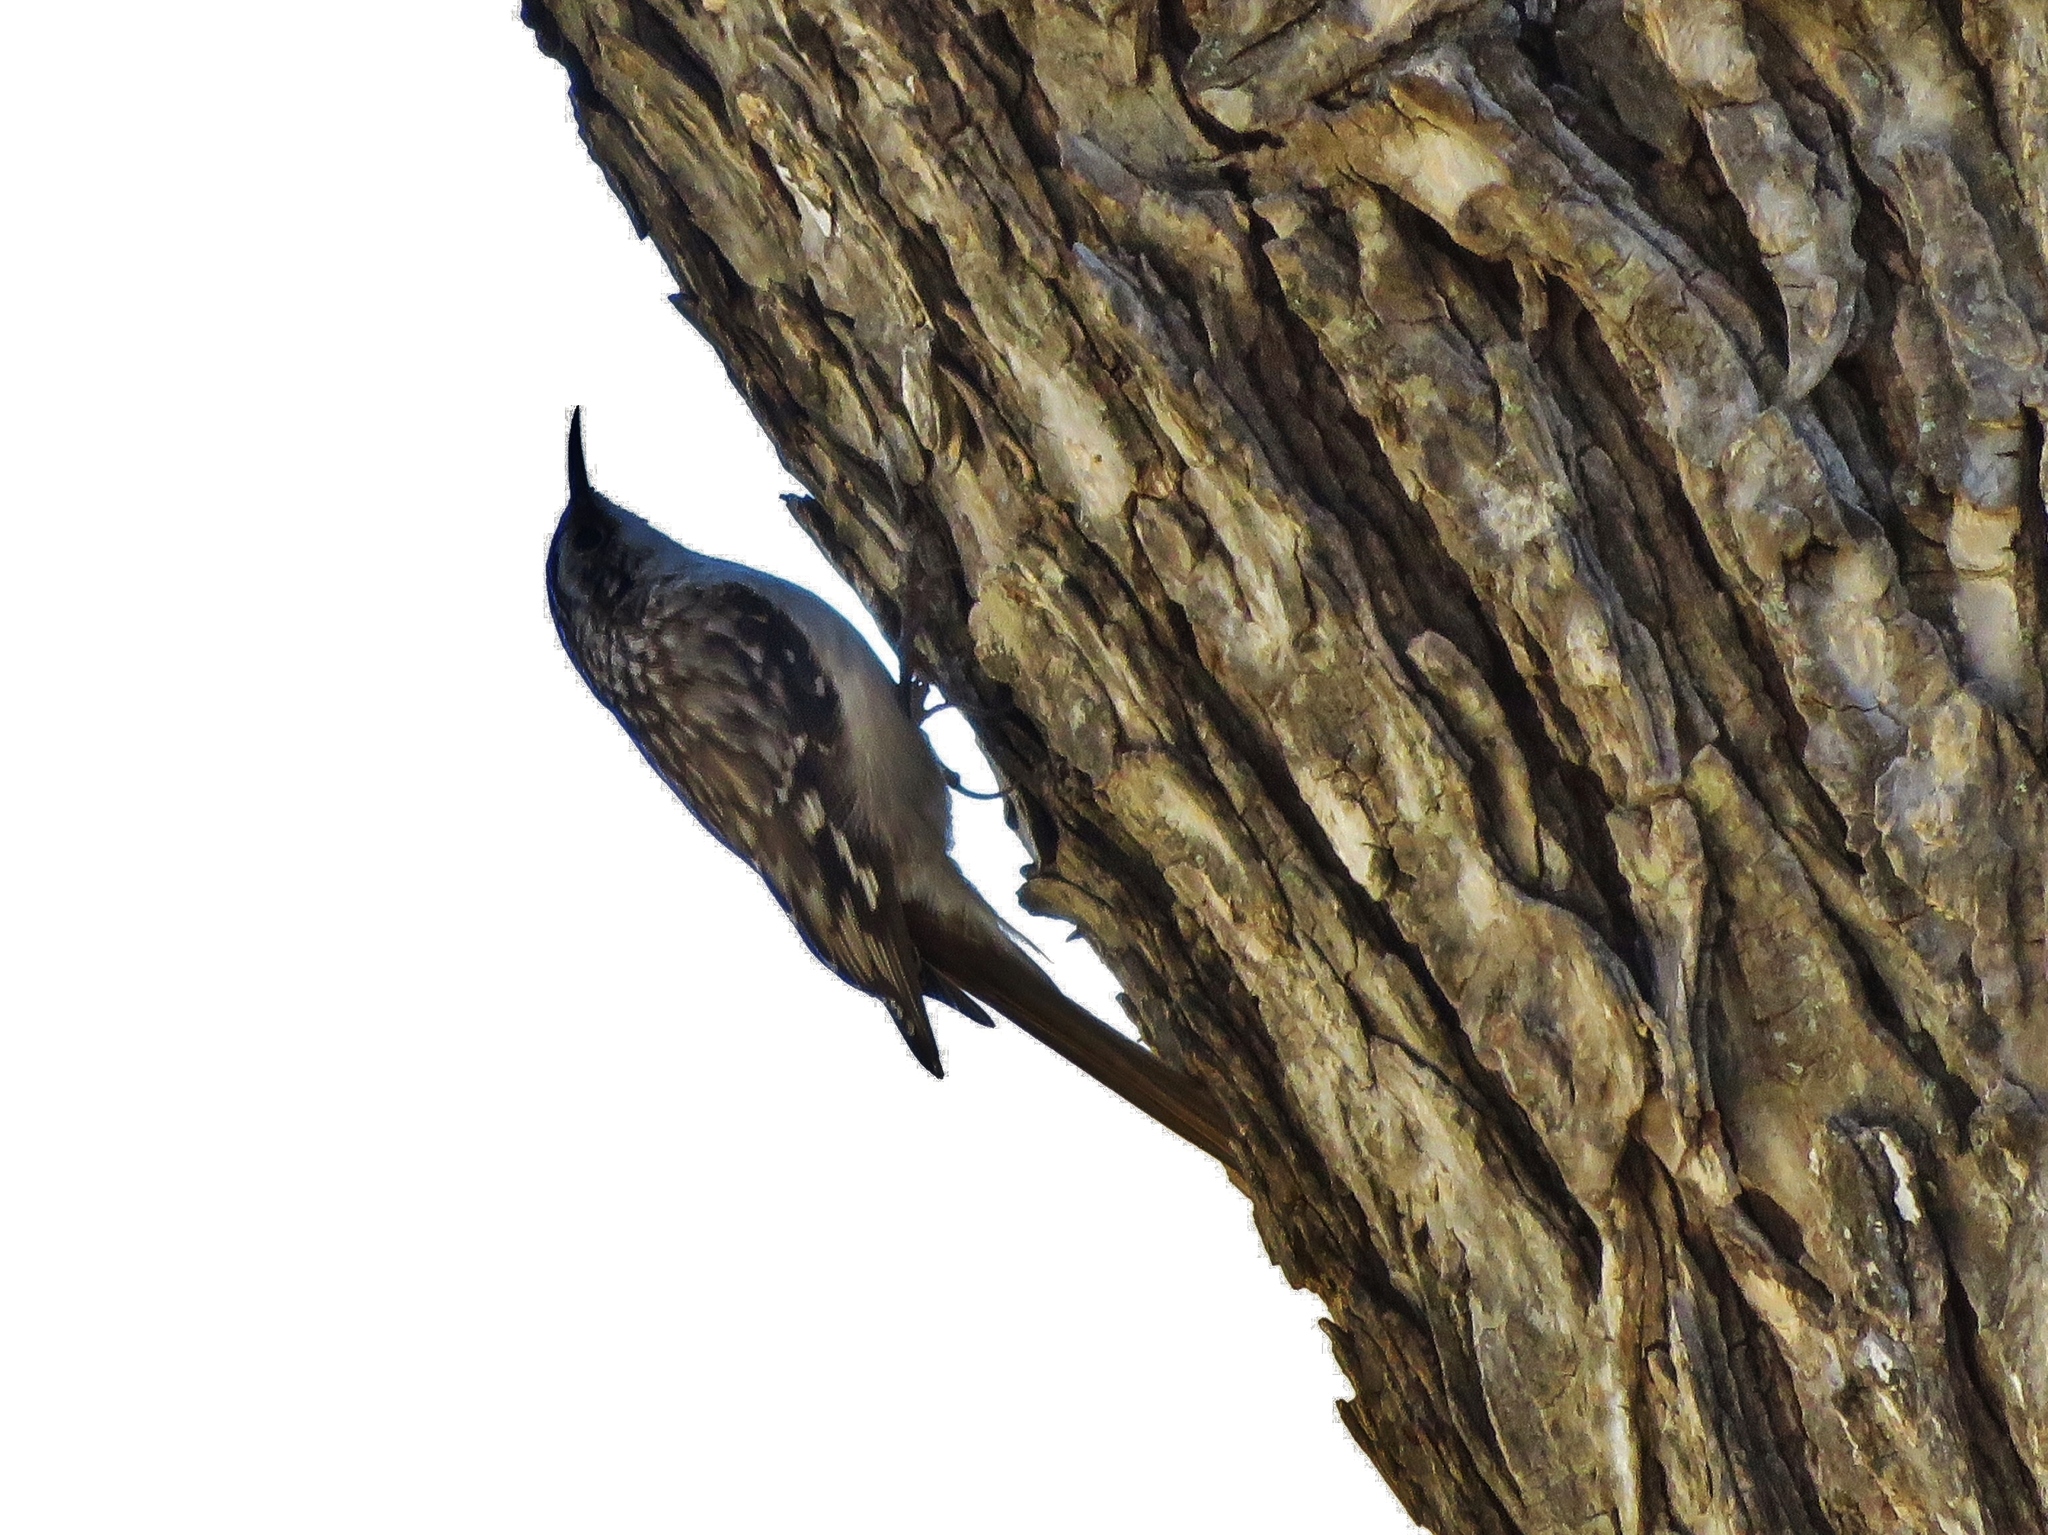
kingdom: Animalia
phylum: Chordata
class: Aves
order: Passeriformes
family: Certhiidae
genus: Certhia
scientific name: Certhia americana
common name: Brown creeper
